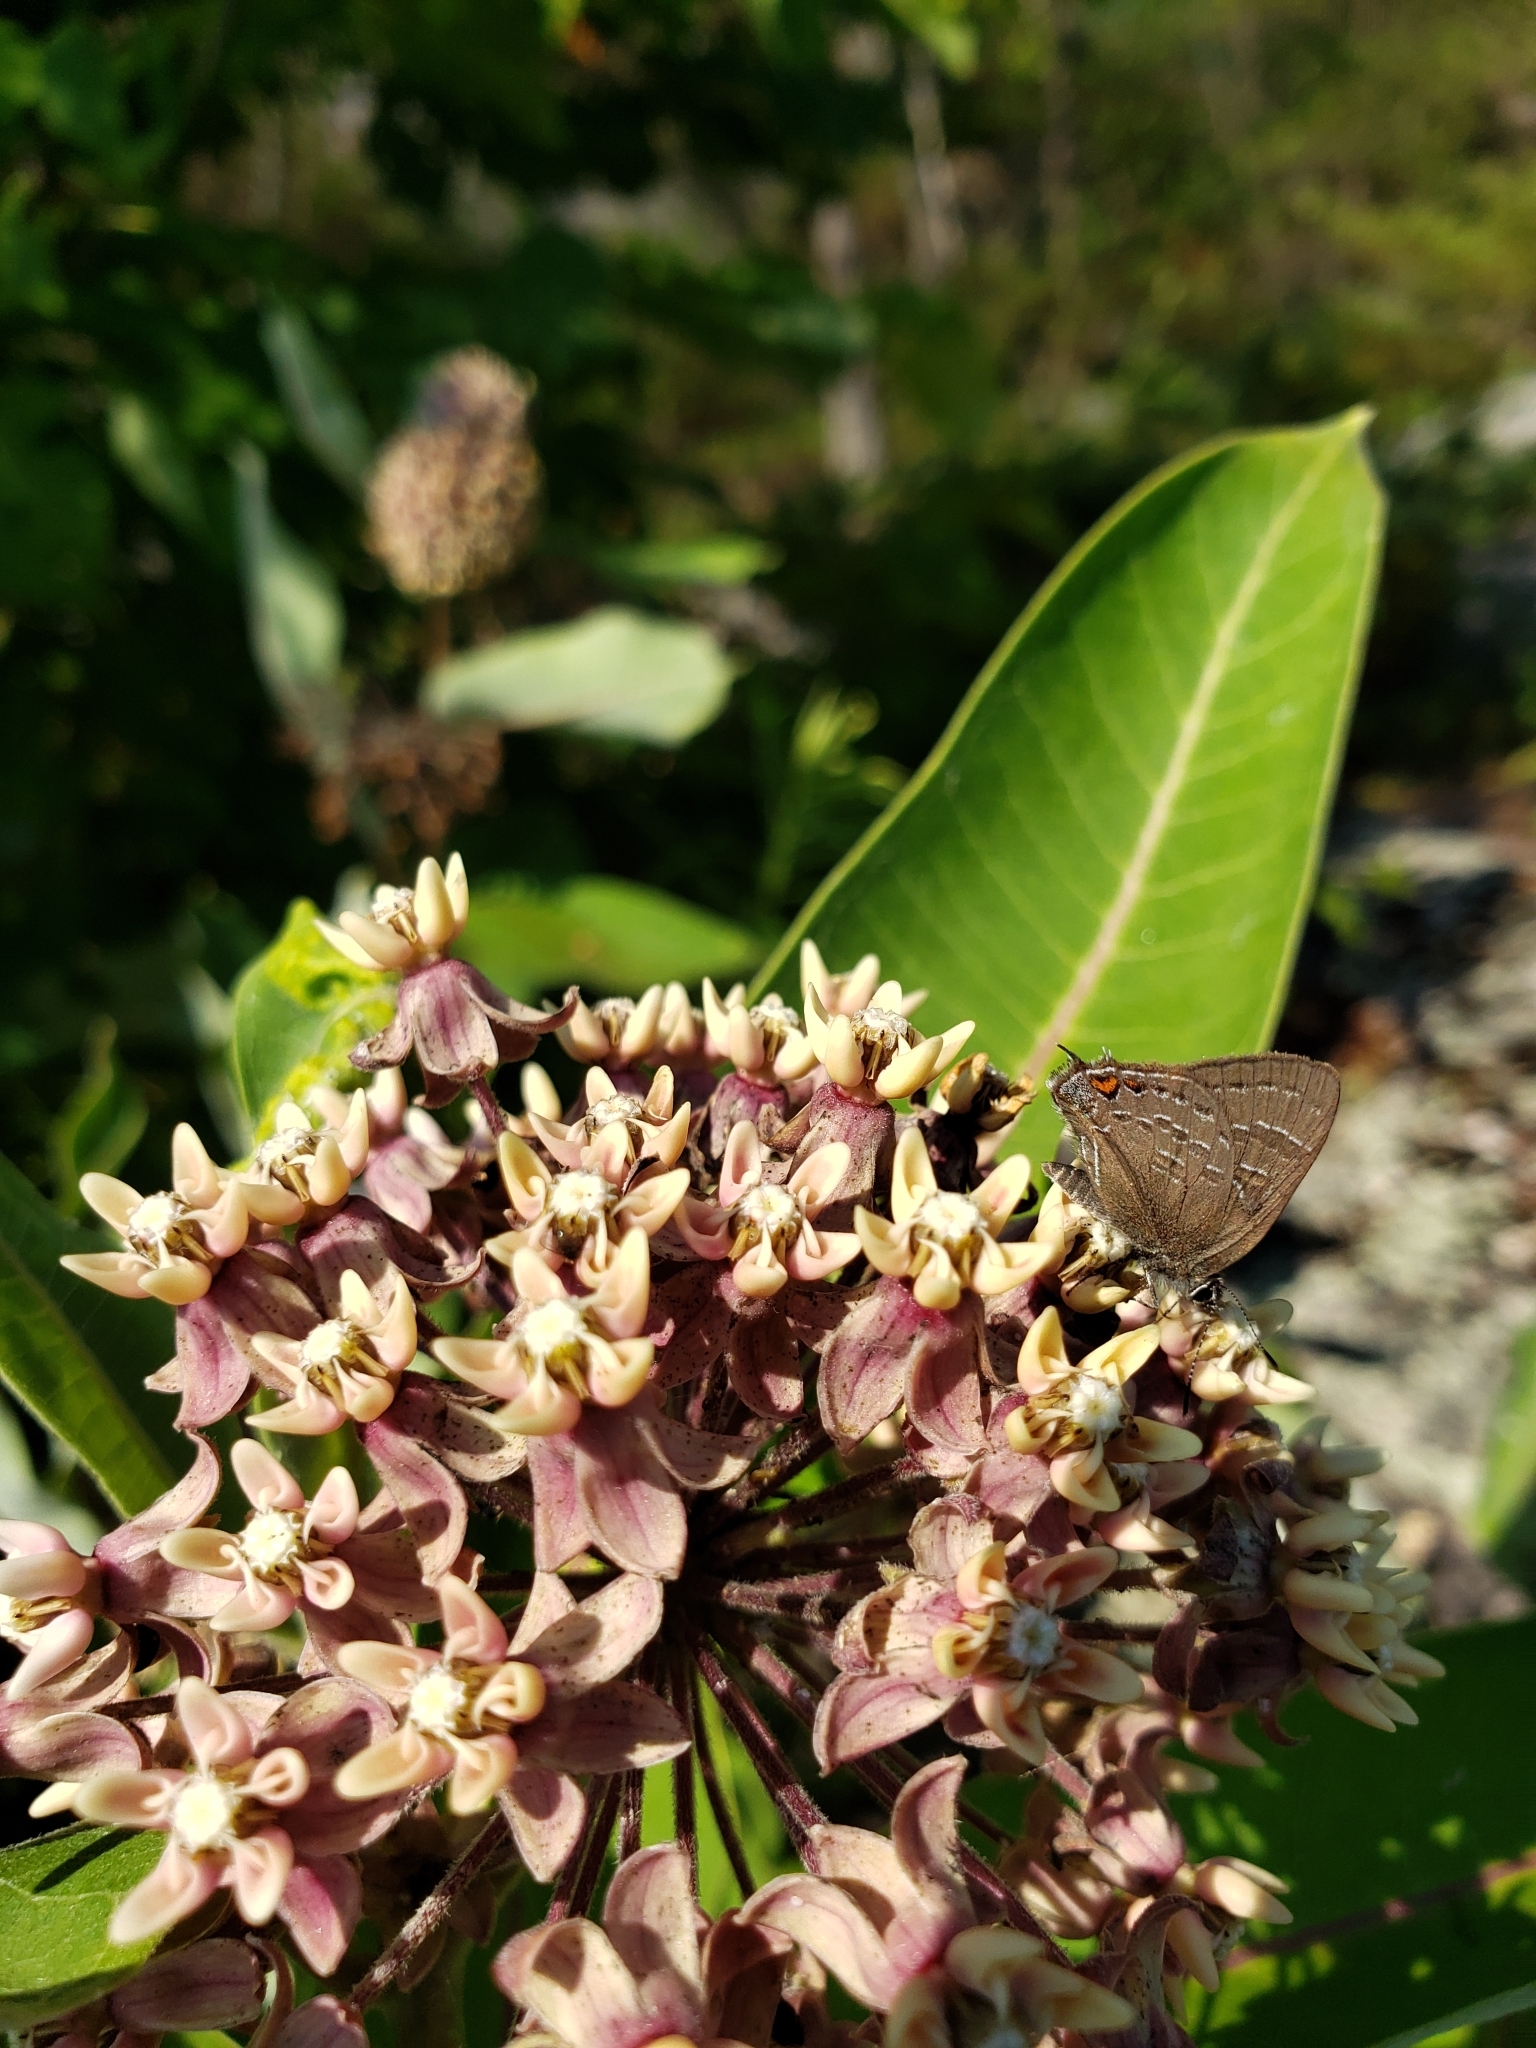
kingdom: Animalia
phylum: Arthropoda
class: Insecta
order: Lepidoptera
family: Lycaenidae
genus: Satyrium
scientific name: Satyrium calanus
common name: Banded hairstreak
